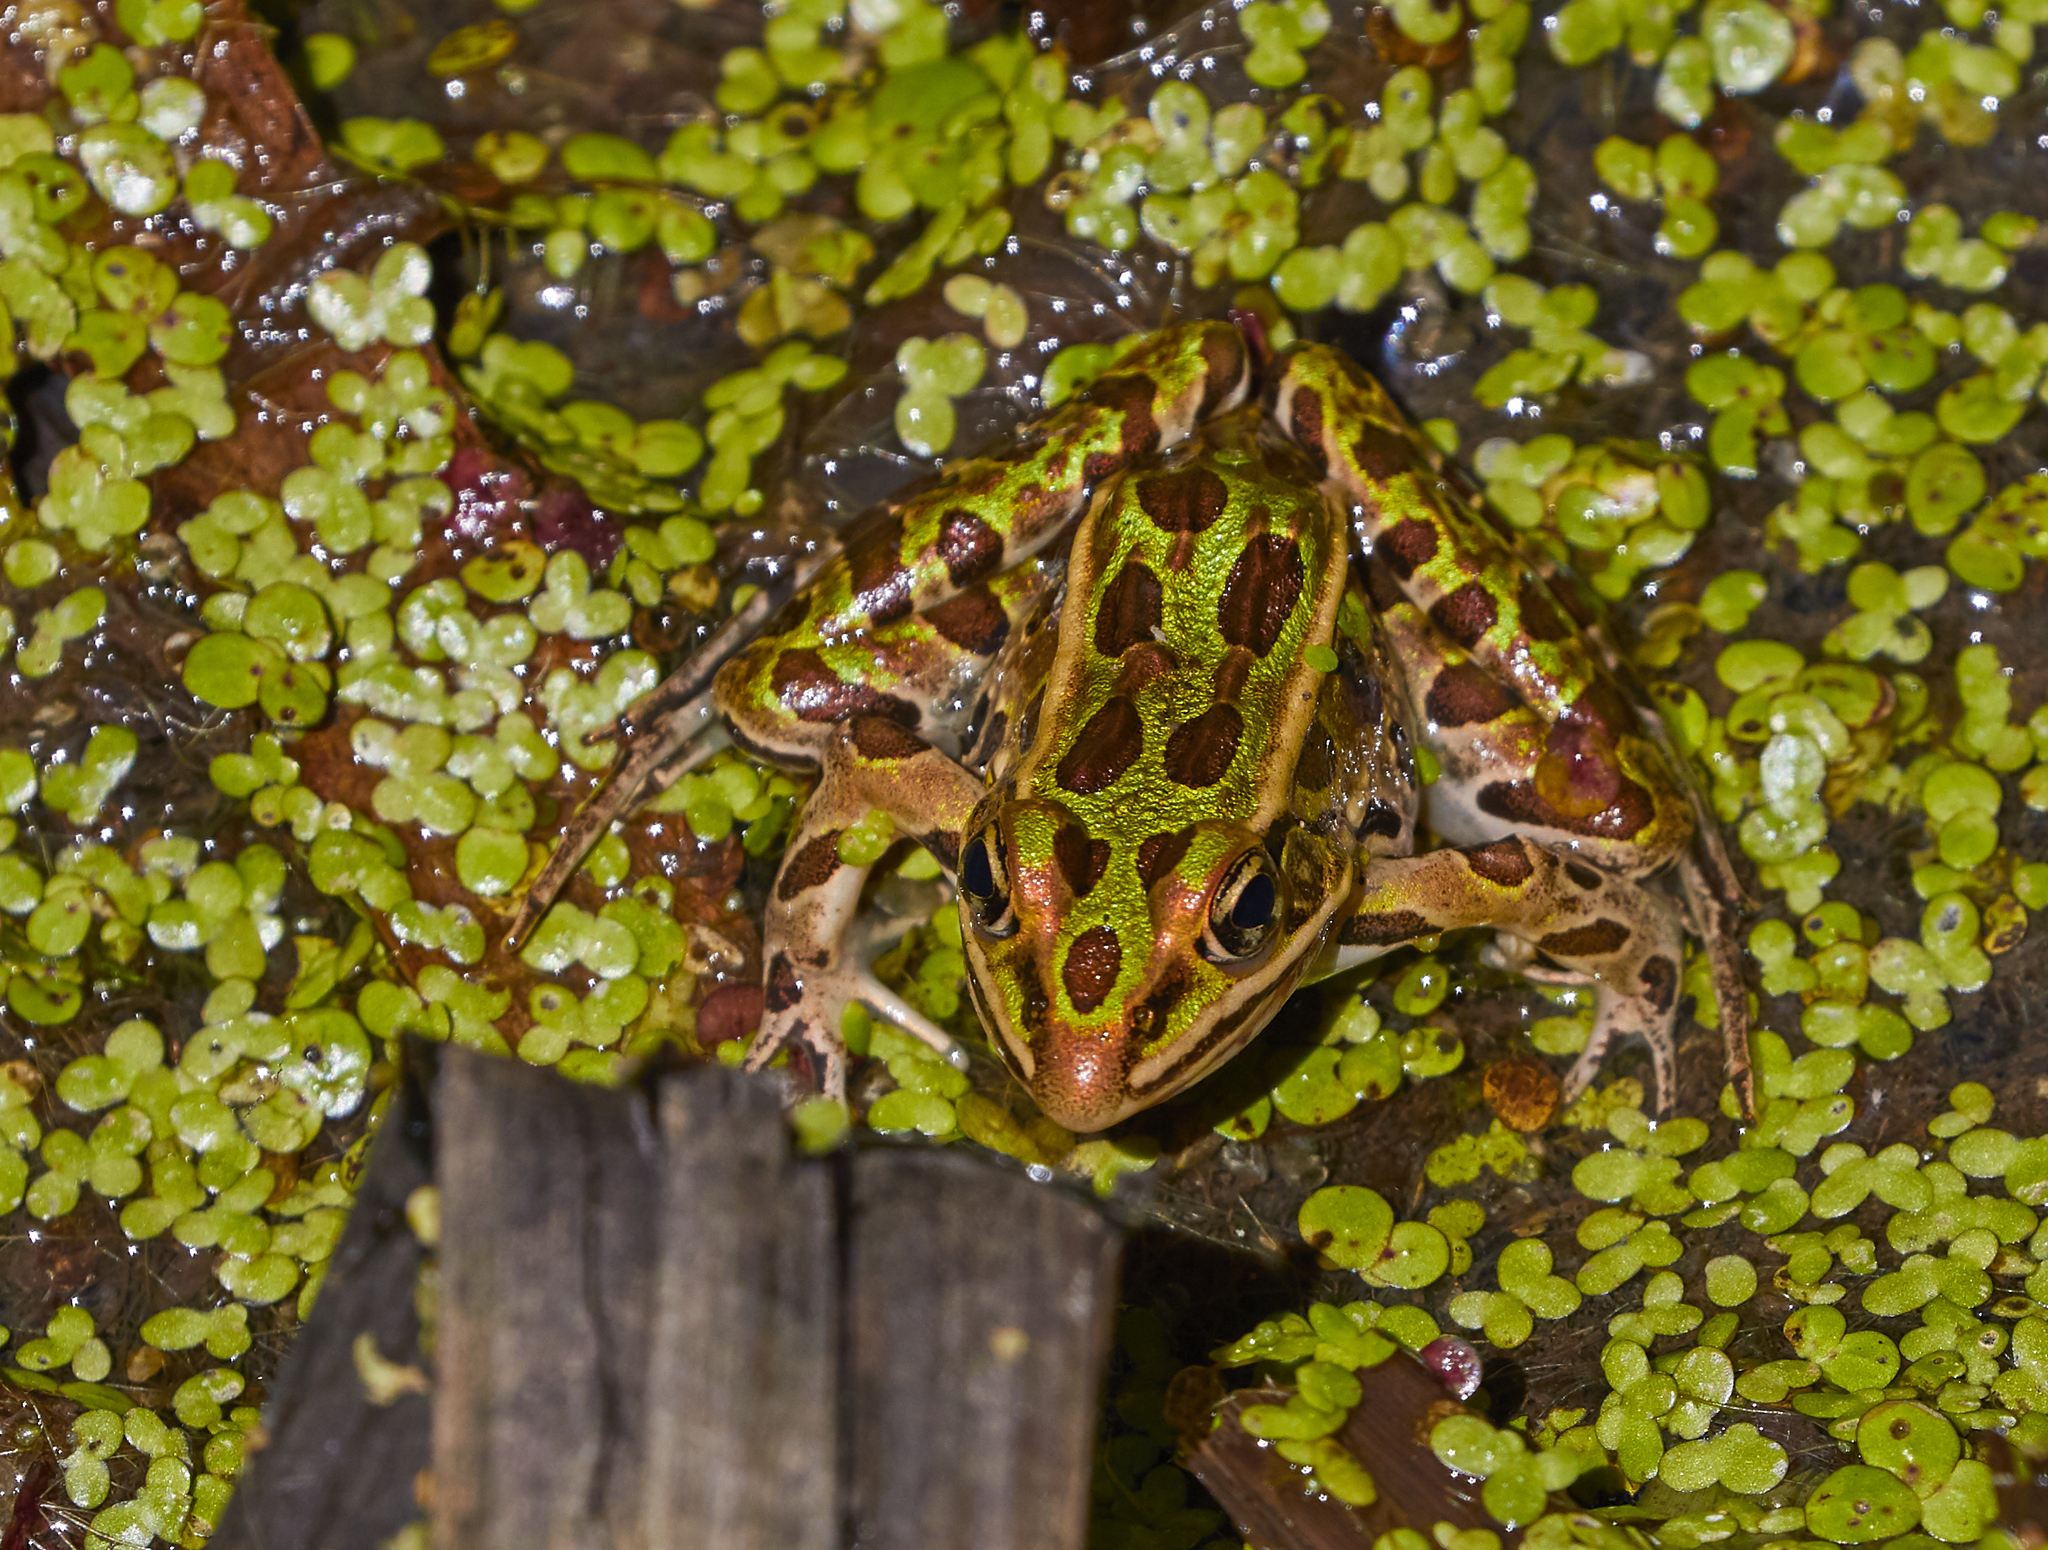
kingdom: Animalia
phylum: Chordata
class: Amphibia
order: Anura
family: Ranidae
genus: Lithobates
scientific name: Lithobates pipiens
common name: Northern leopard frog
